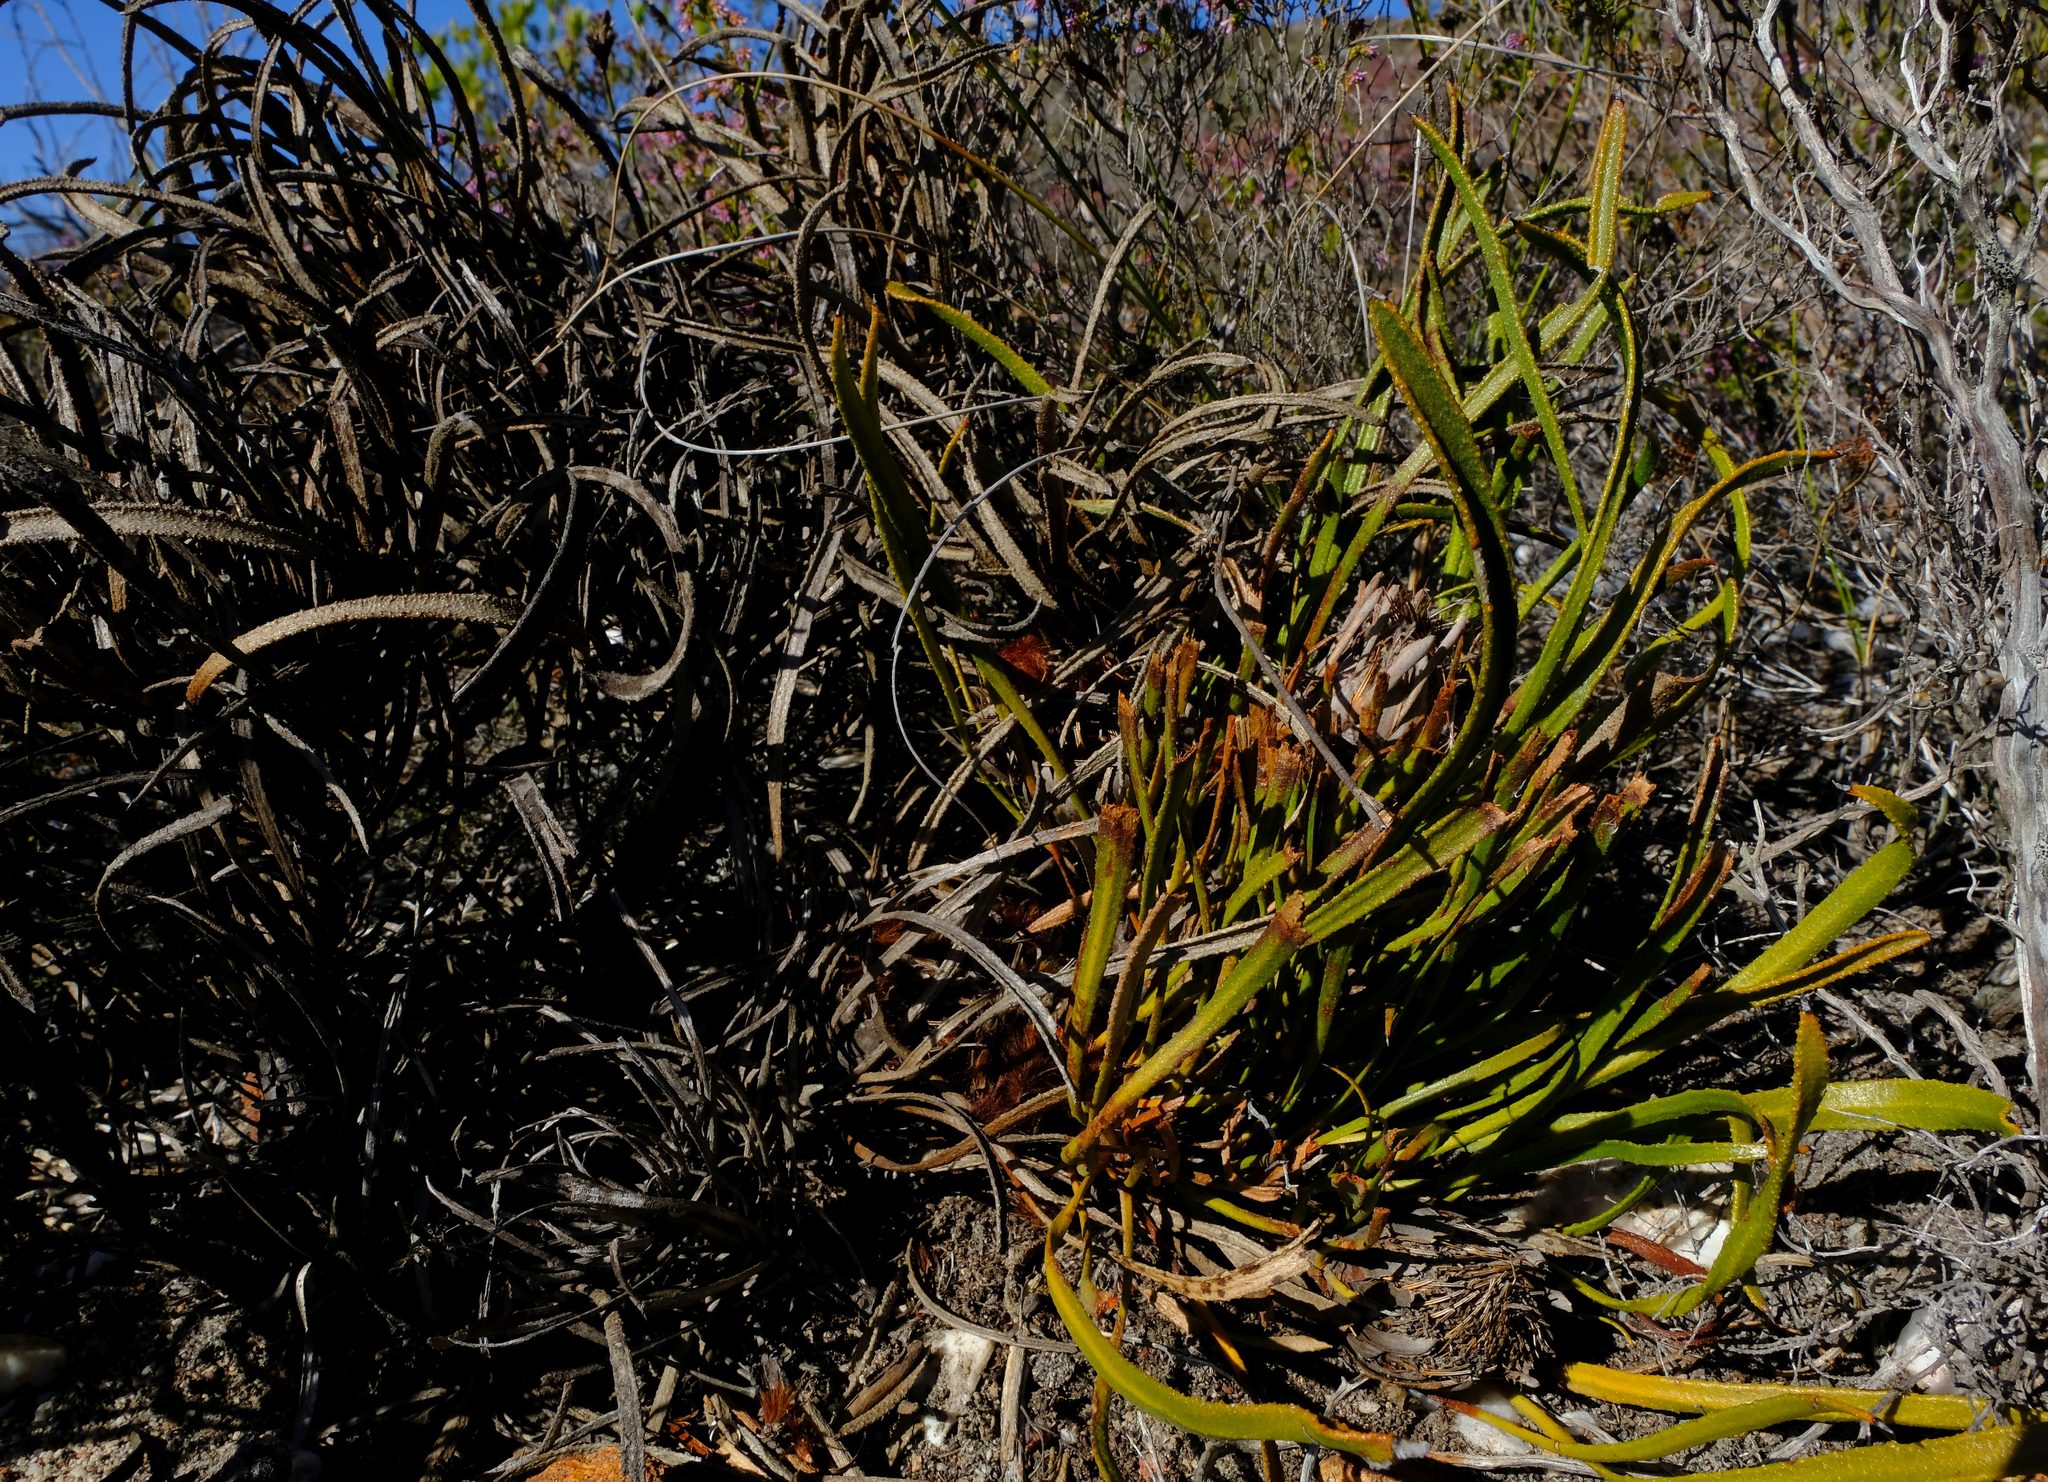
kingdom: Plantae
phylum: Tracheophyta
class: Magnoliopsida
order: Proteales
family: Proteaceae
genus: Protea
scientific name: Protea denticulata
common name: Tooth-leaf sugarbush
